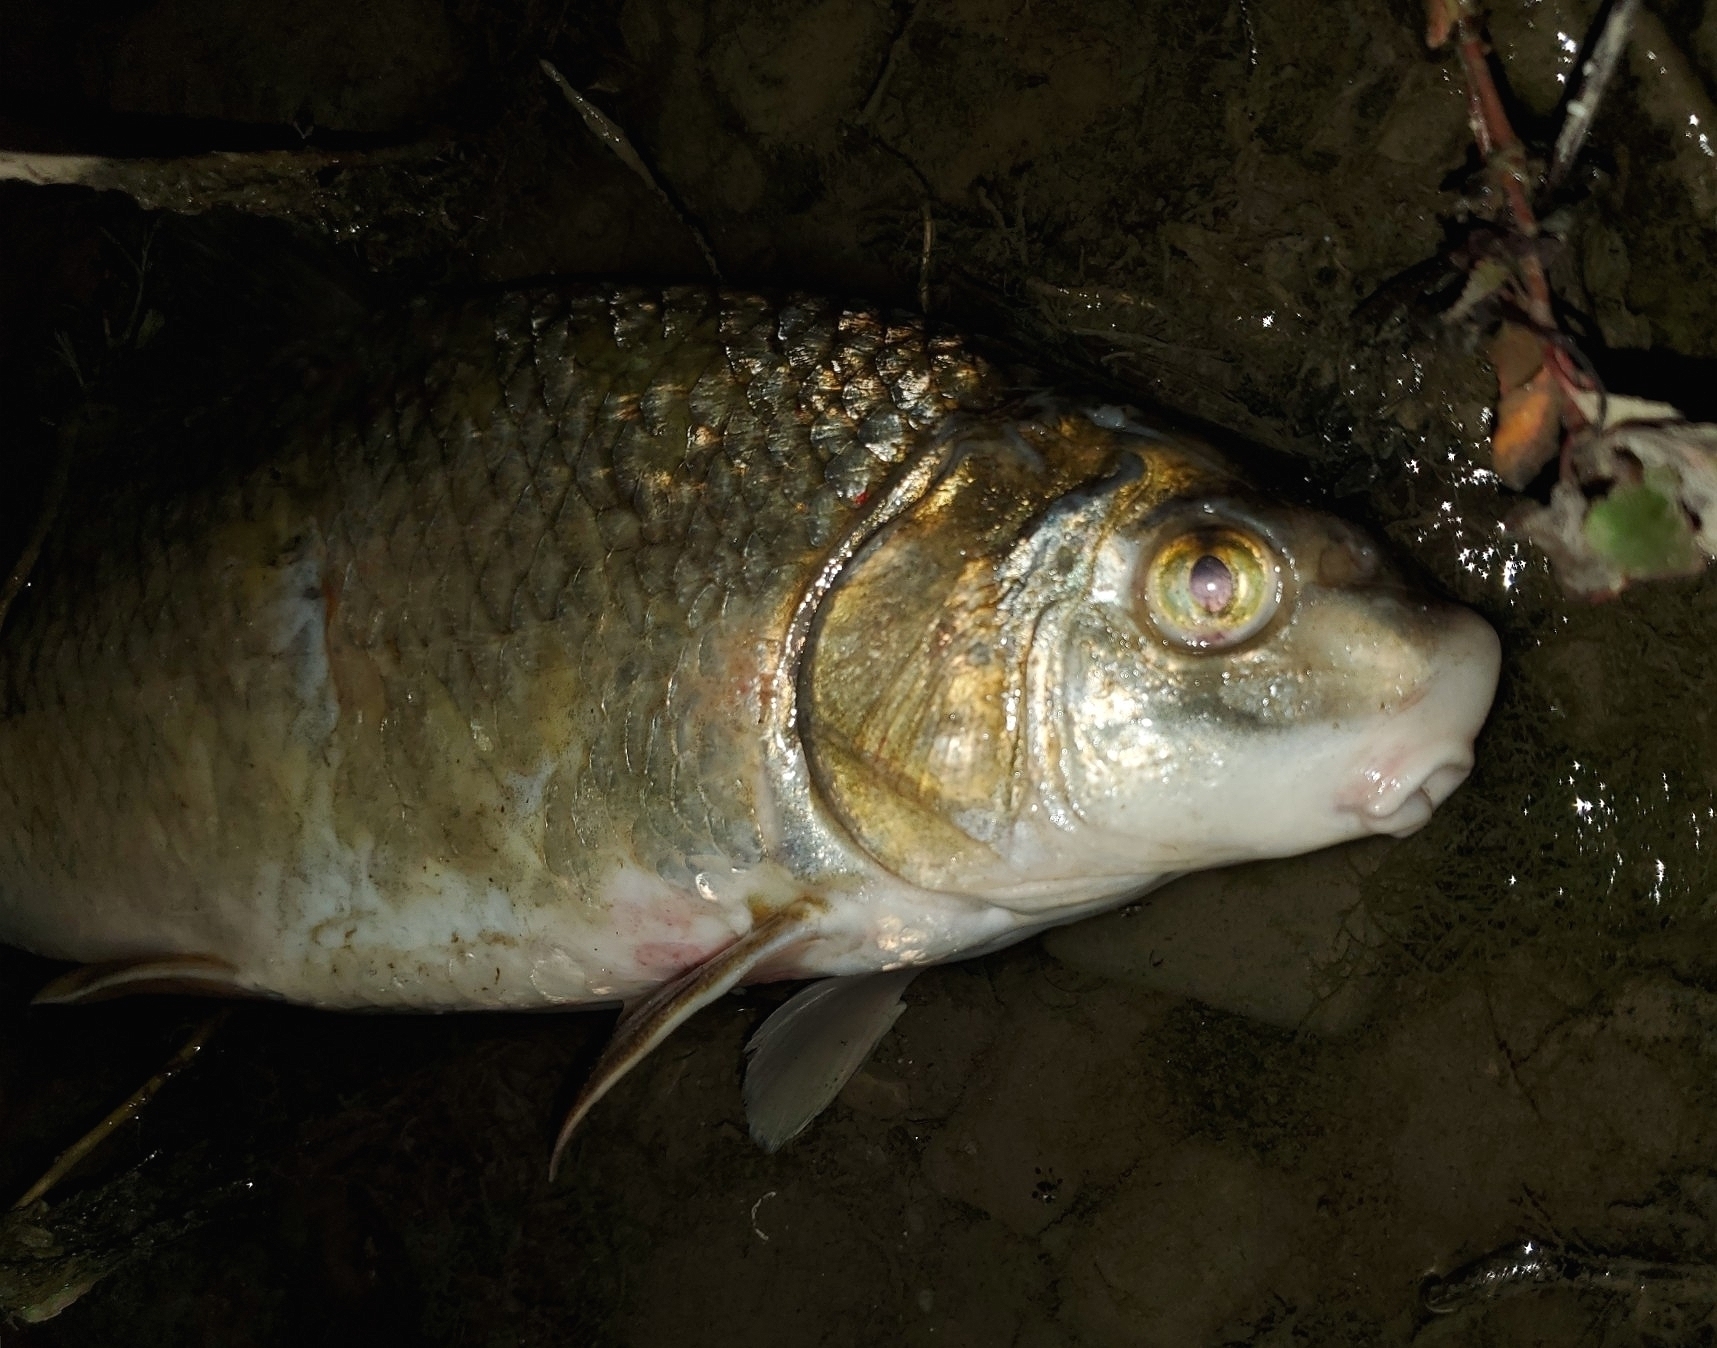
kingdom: Animalia
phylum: Chordata
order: Cypriniformes
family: Catostomidae
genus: Carpiodes
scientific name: Carpiodes cyprinus
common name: Quillback
